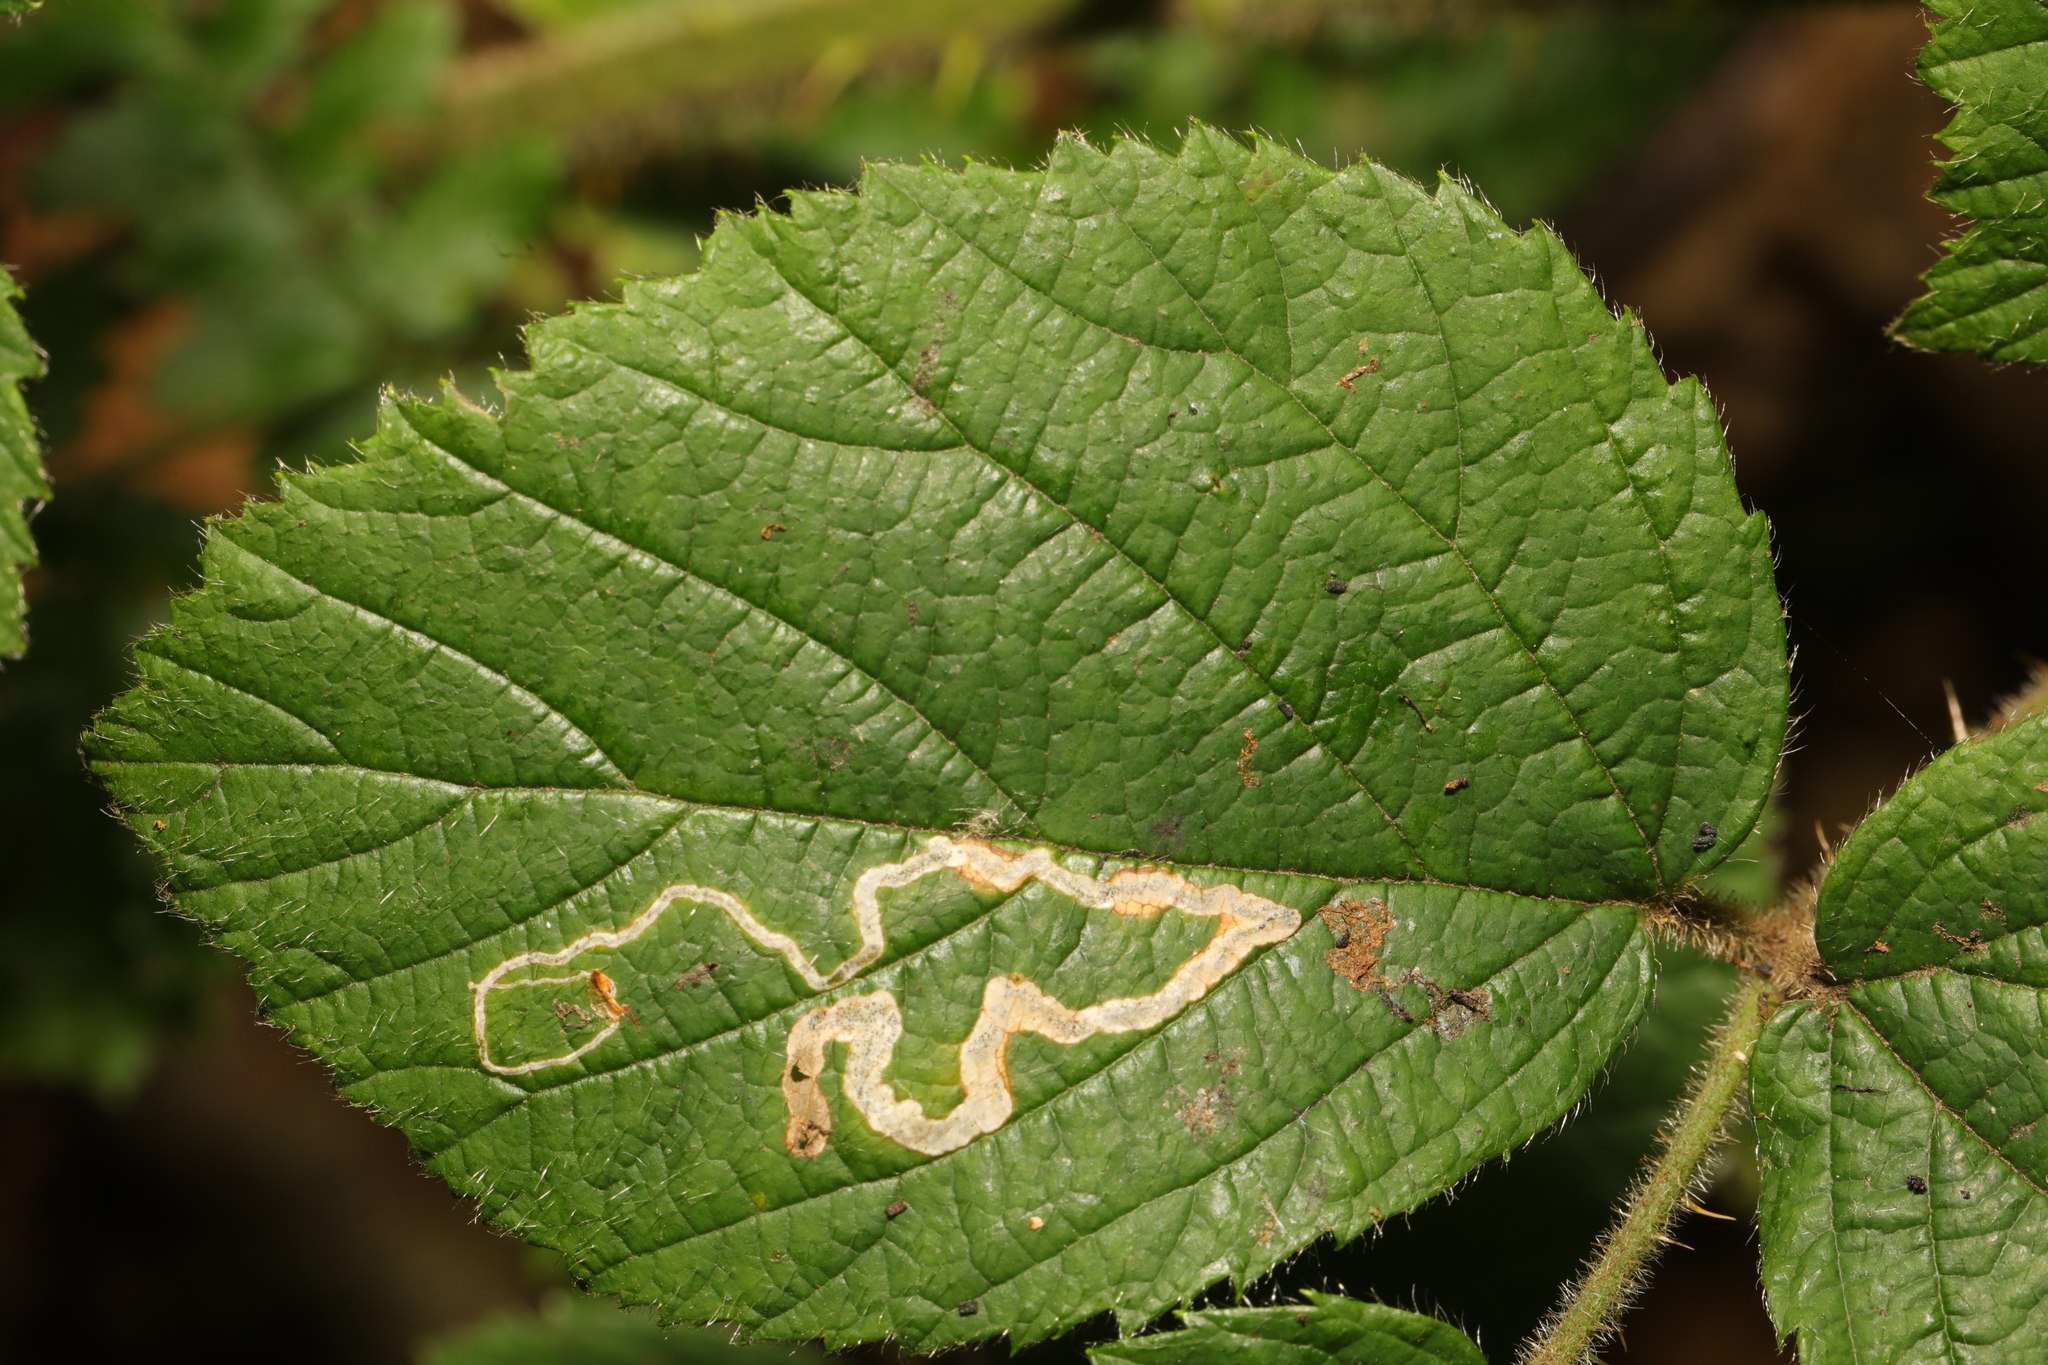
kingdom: Animalia
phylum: Arthropoda
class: Insecta
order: Lepidoptera
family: Nepticulidae
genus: Stigmella
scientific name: Stigmella aurella
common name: Golden pigmy
